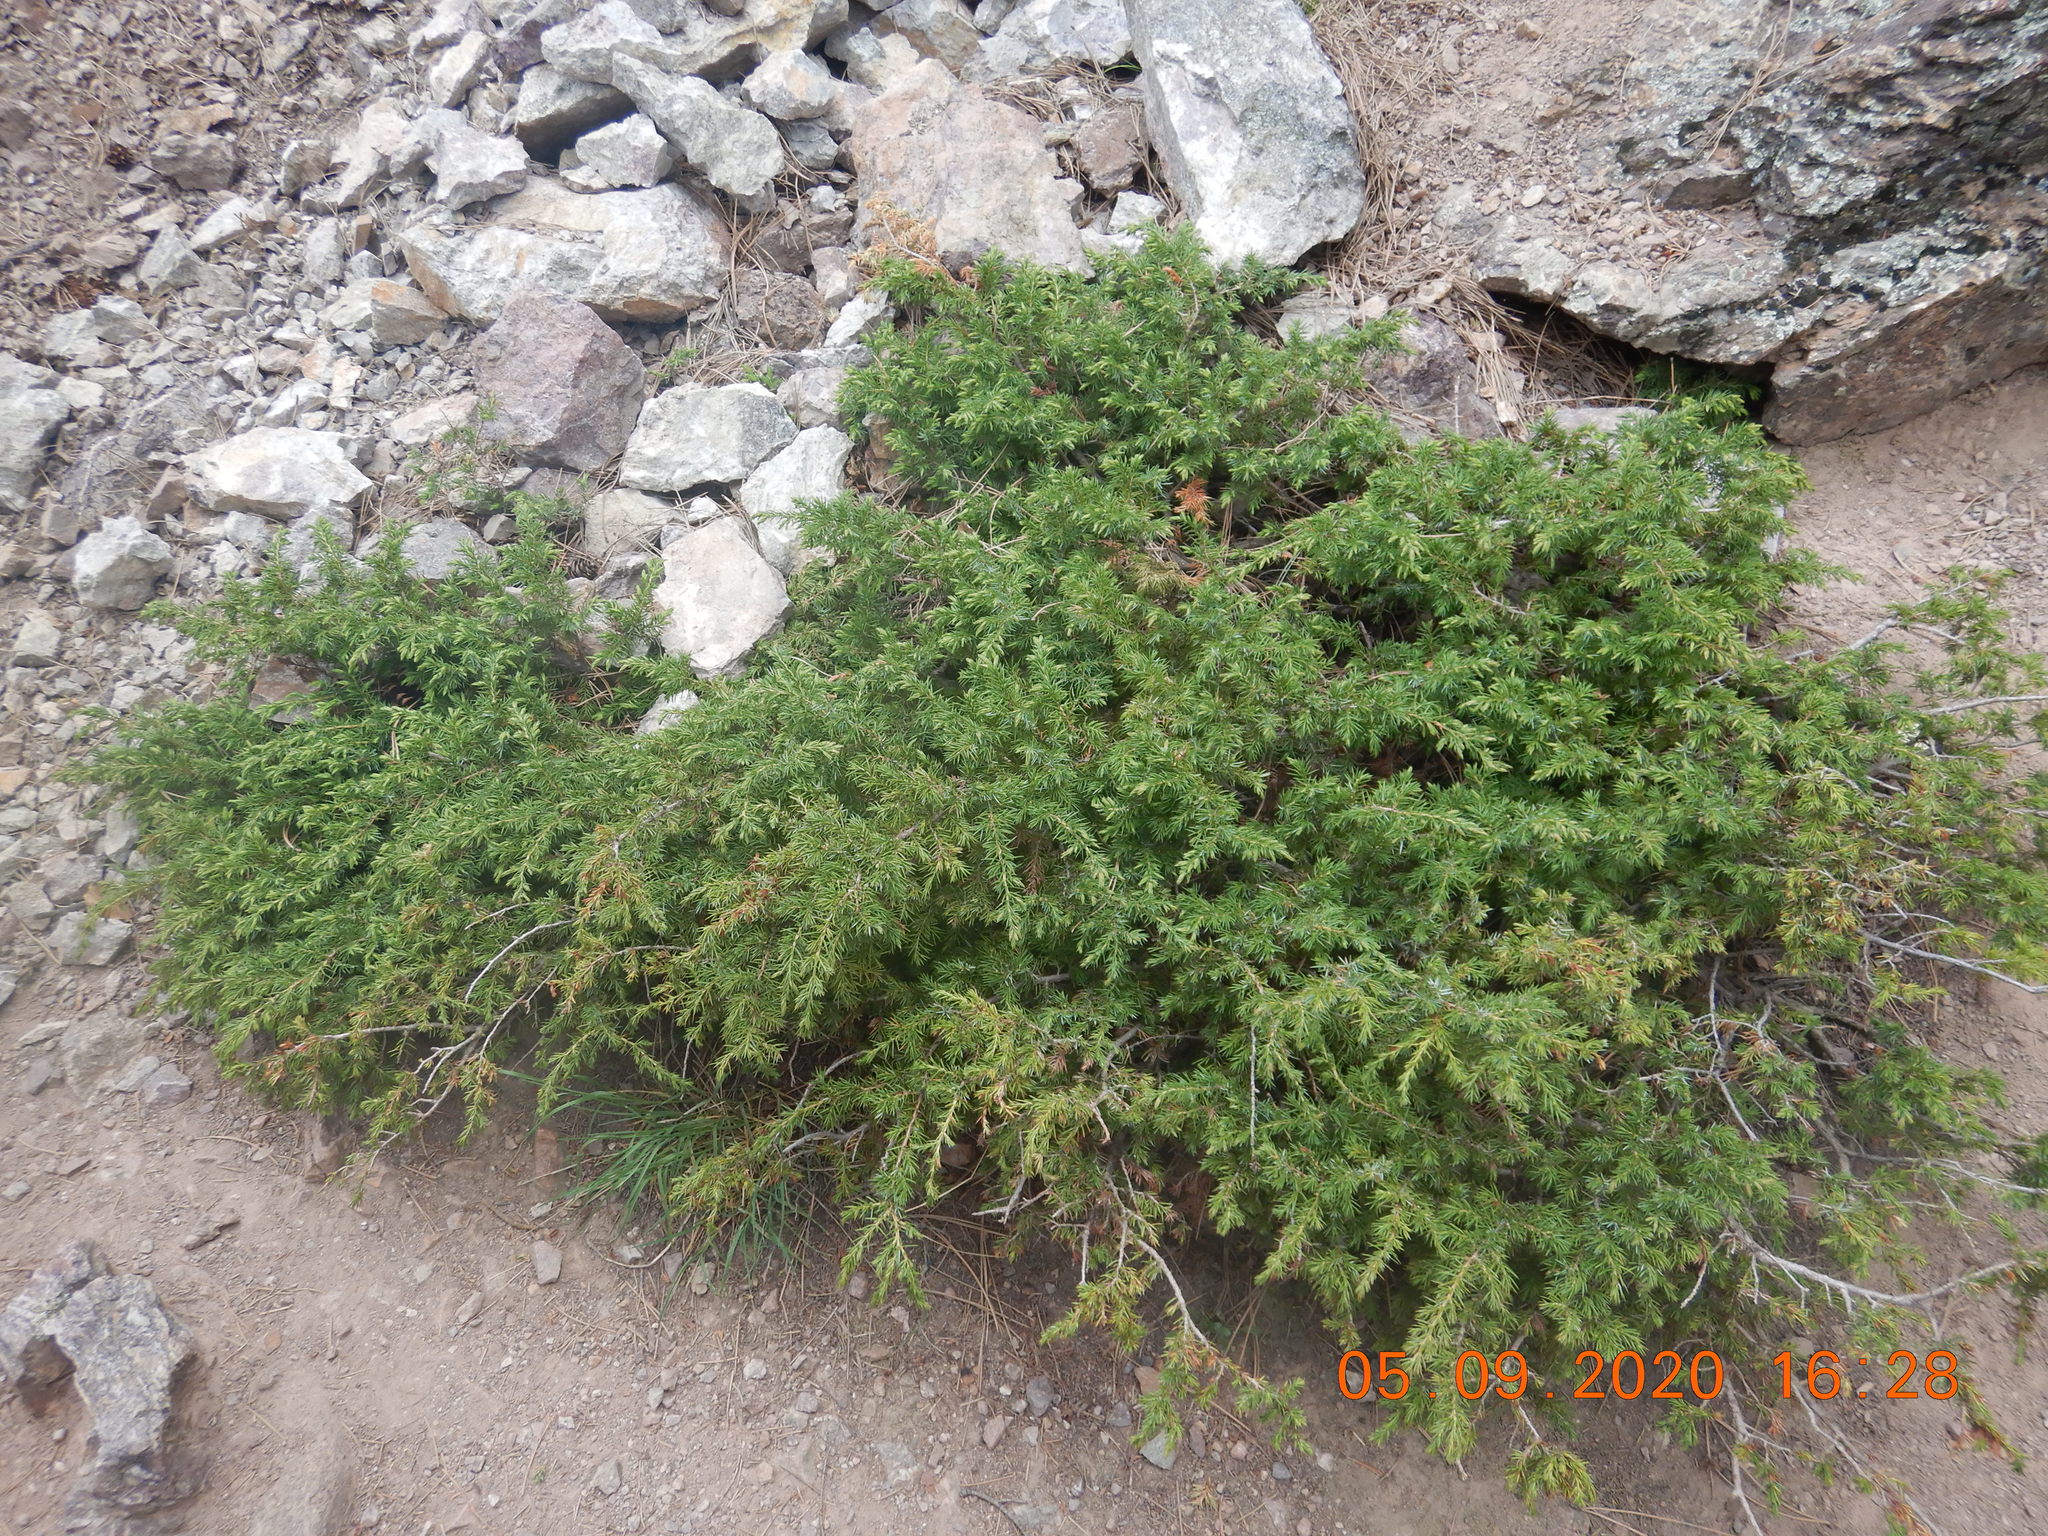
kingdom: Plantae
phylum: Tracheophyta
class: Pinopsida
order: Pinales
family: Cupressaceae
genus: Juniperus
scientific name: Juniperus communis
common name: Common juniper
